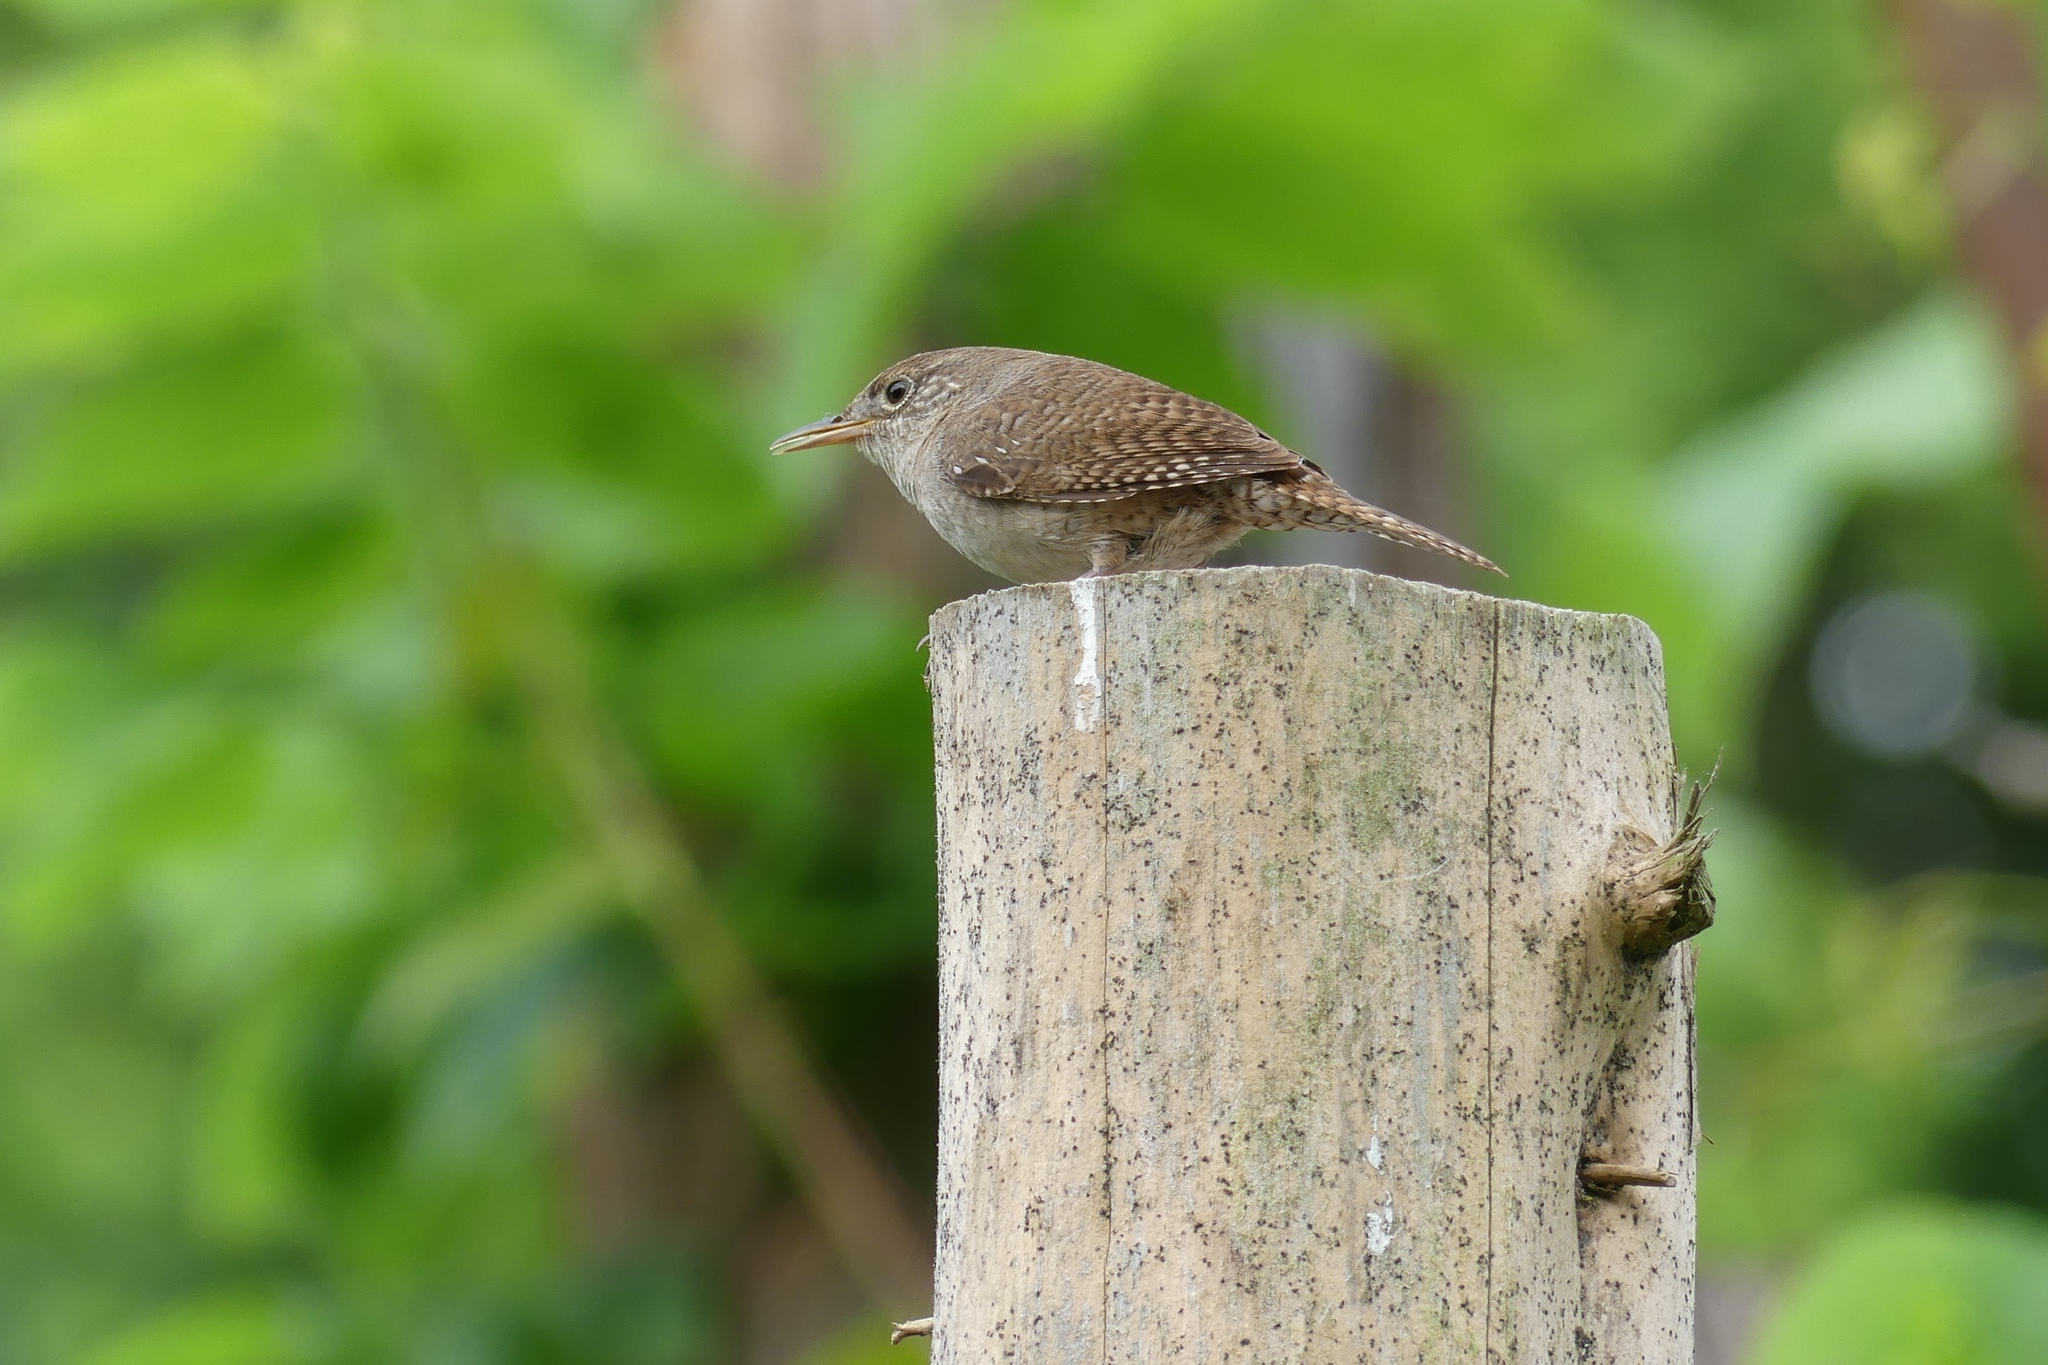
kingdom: Animalia
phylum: Chordata
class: Aves
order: Passeriformes
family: Troglodytidae
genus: Troglodytes
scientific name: Troglodytes aedon
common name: House wren
